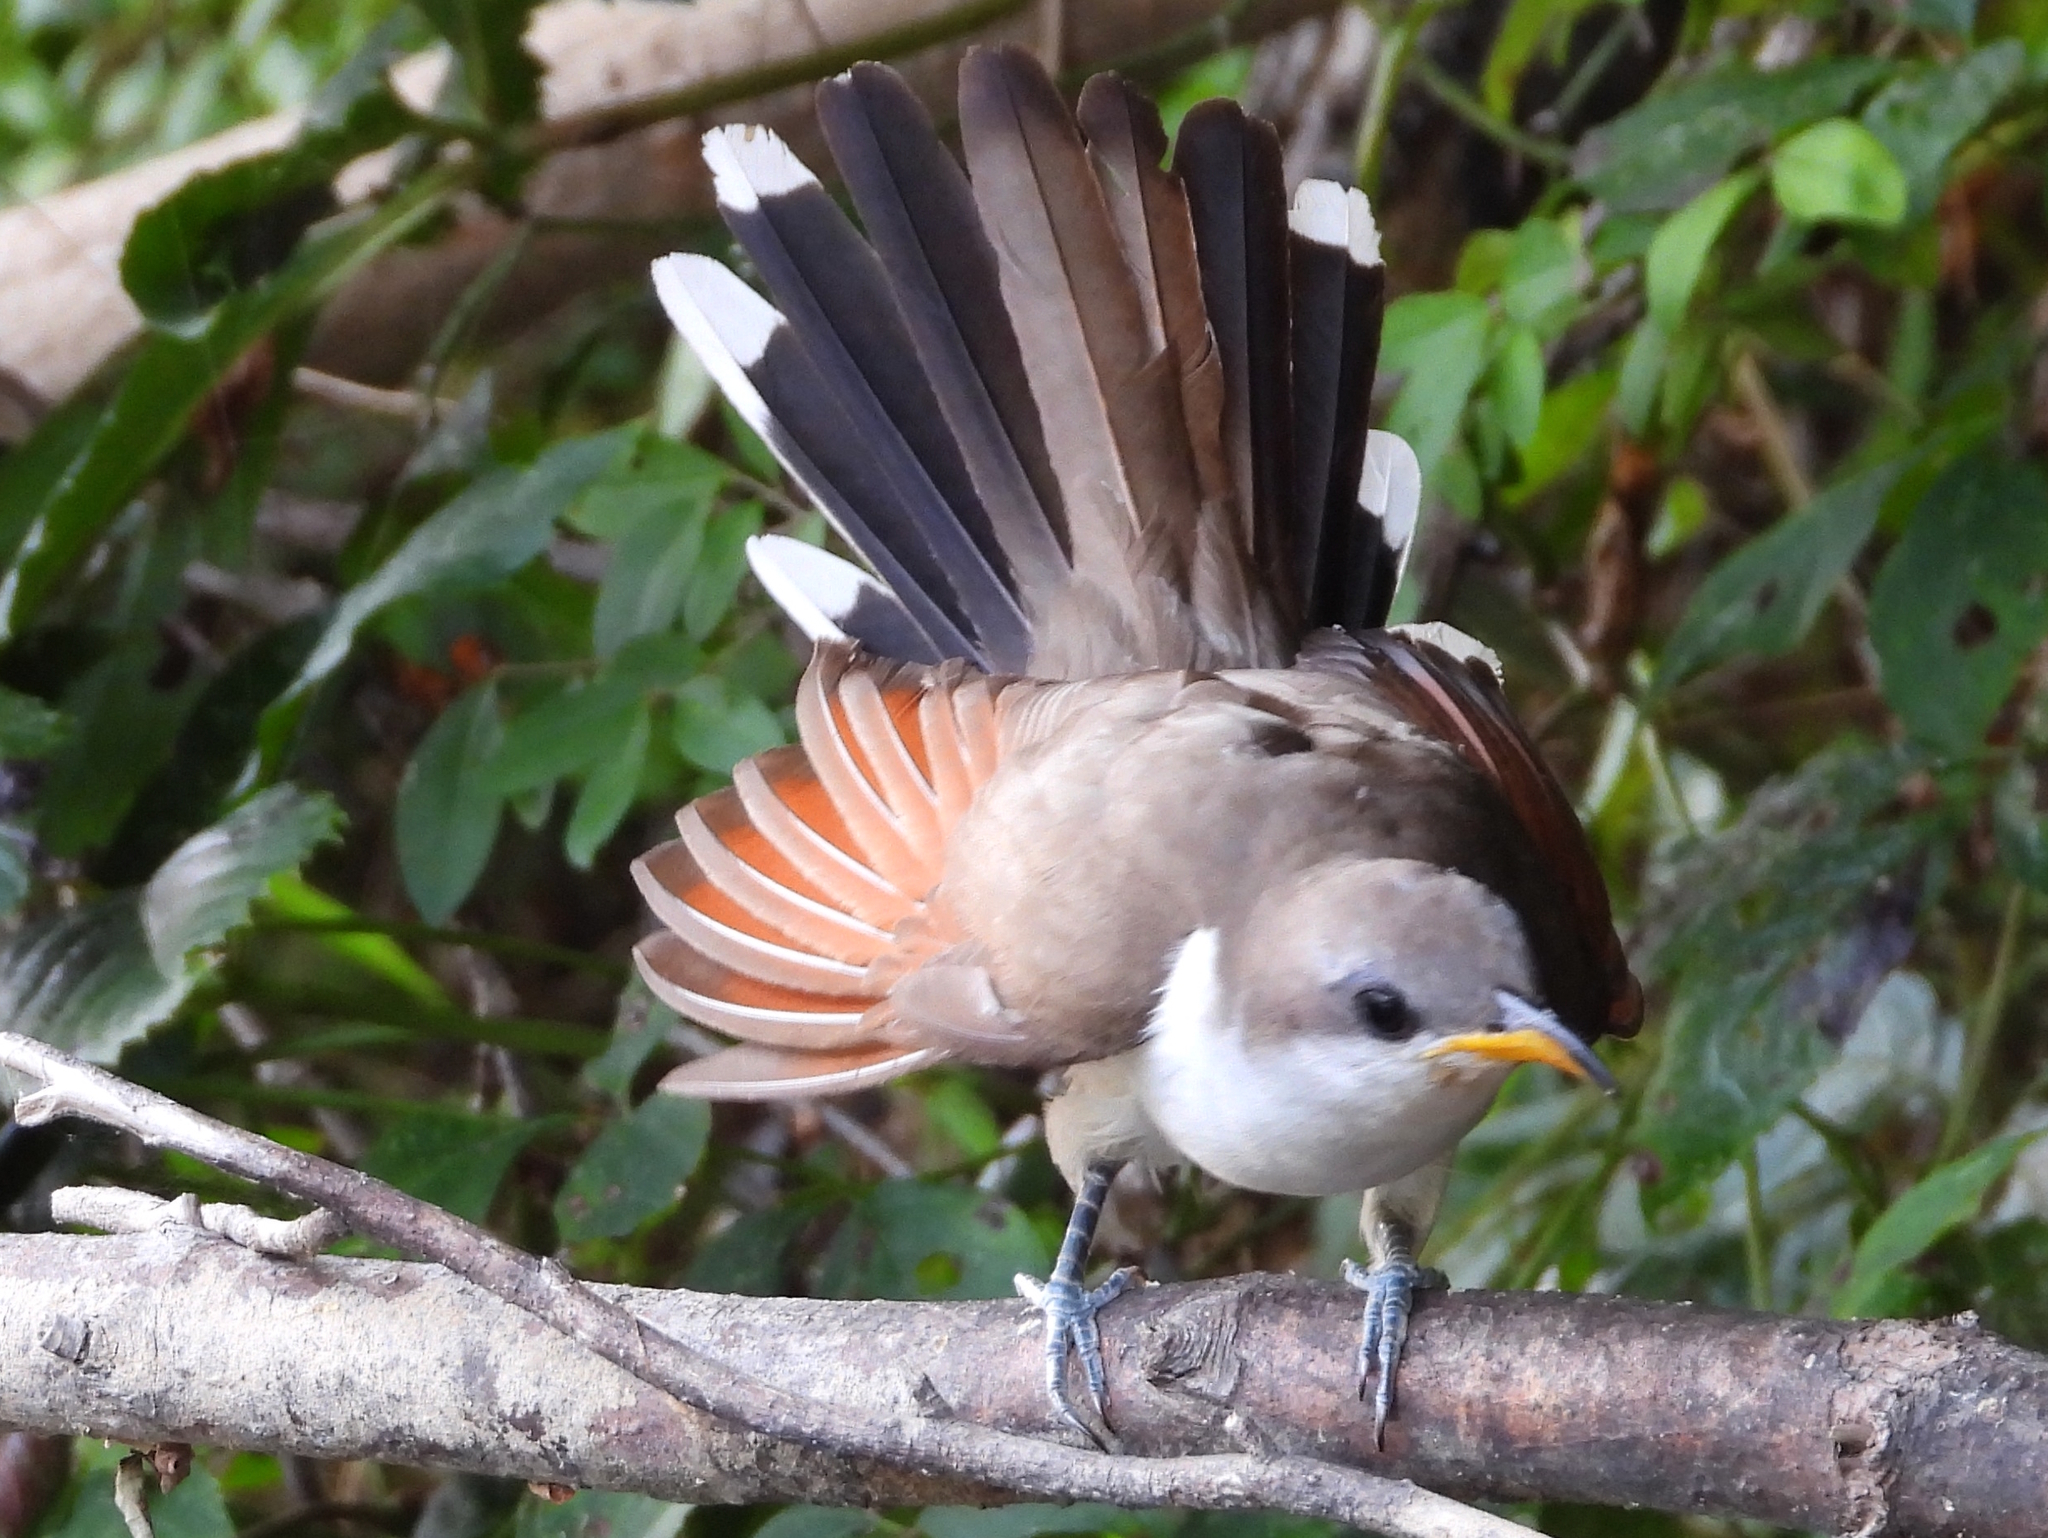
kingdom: Animalia
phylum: Chordata
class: Aves
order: Cuculiformes
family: Cuculidae
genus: Coccyzus
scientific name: Coccyzus americanus
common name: Yellow-billed cuckoo
